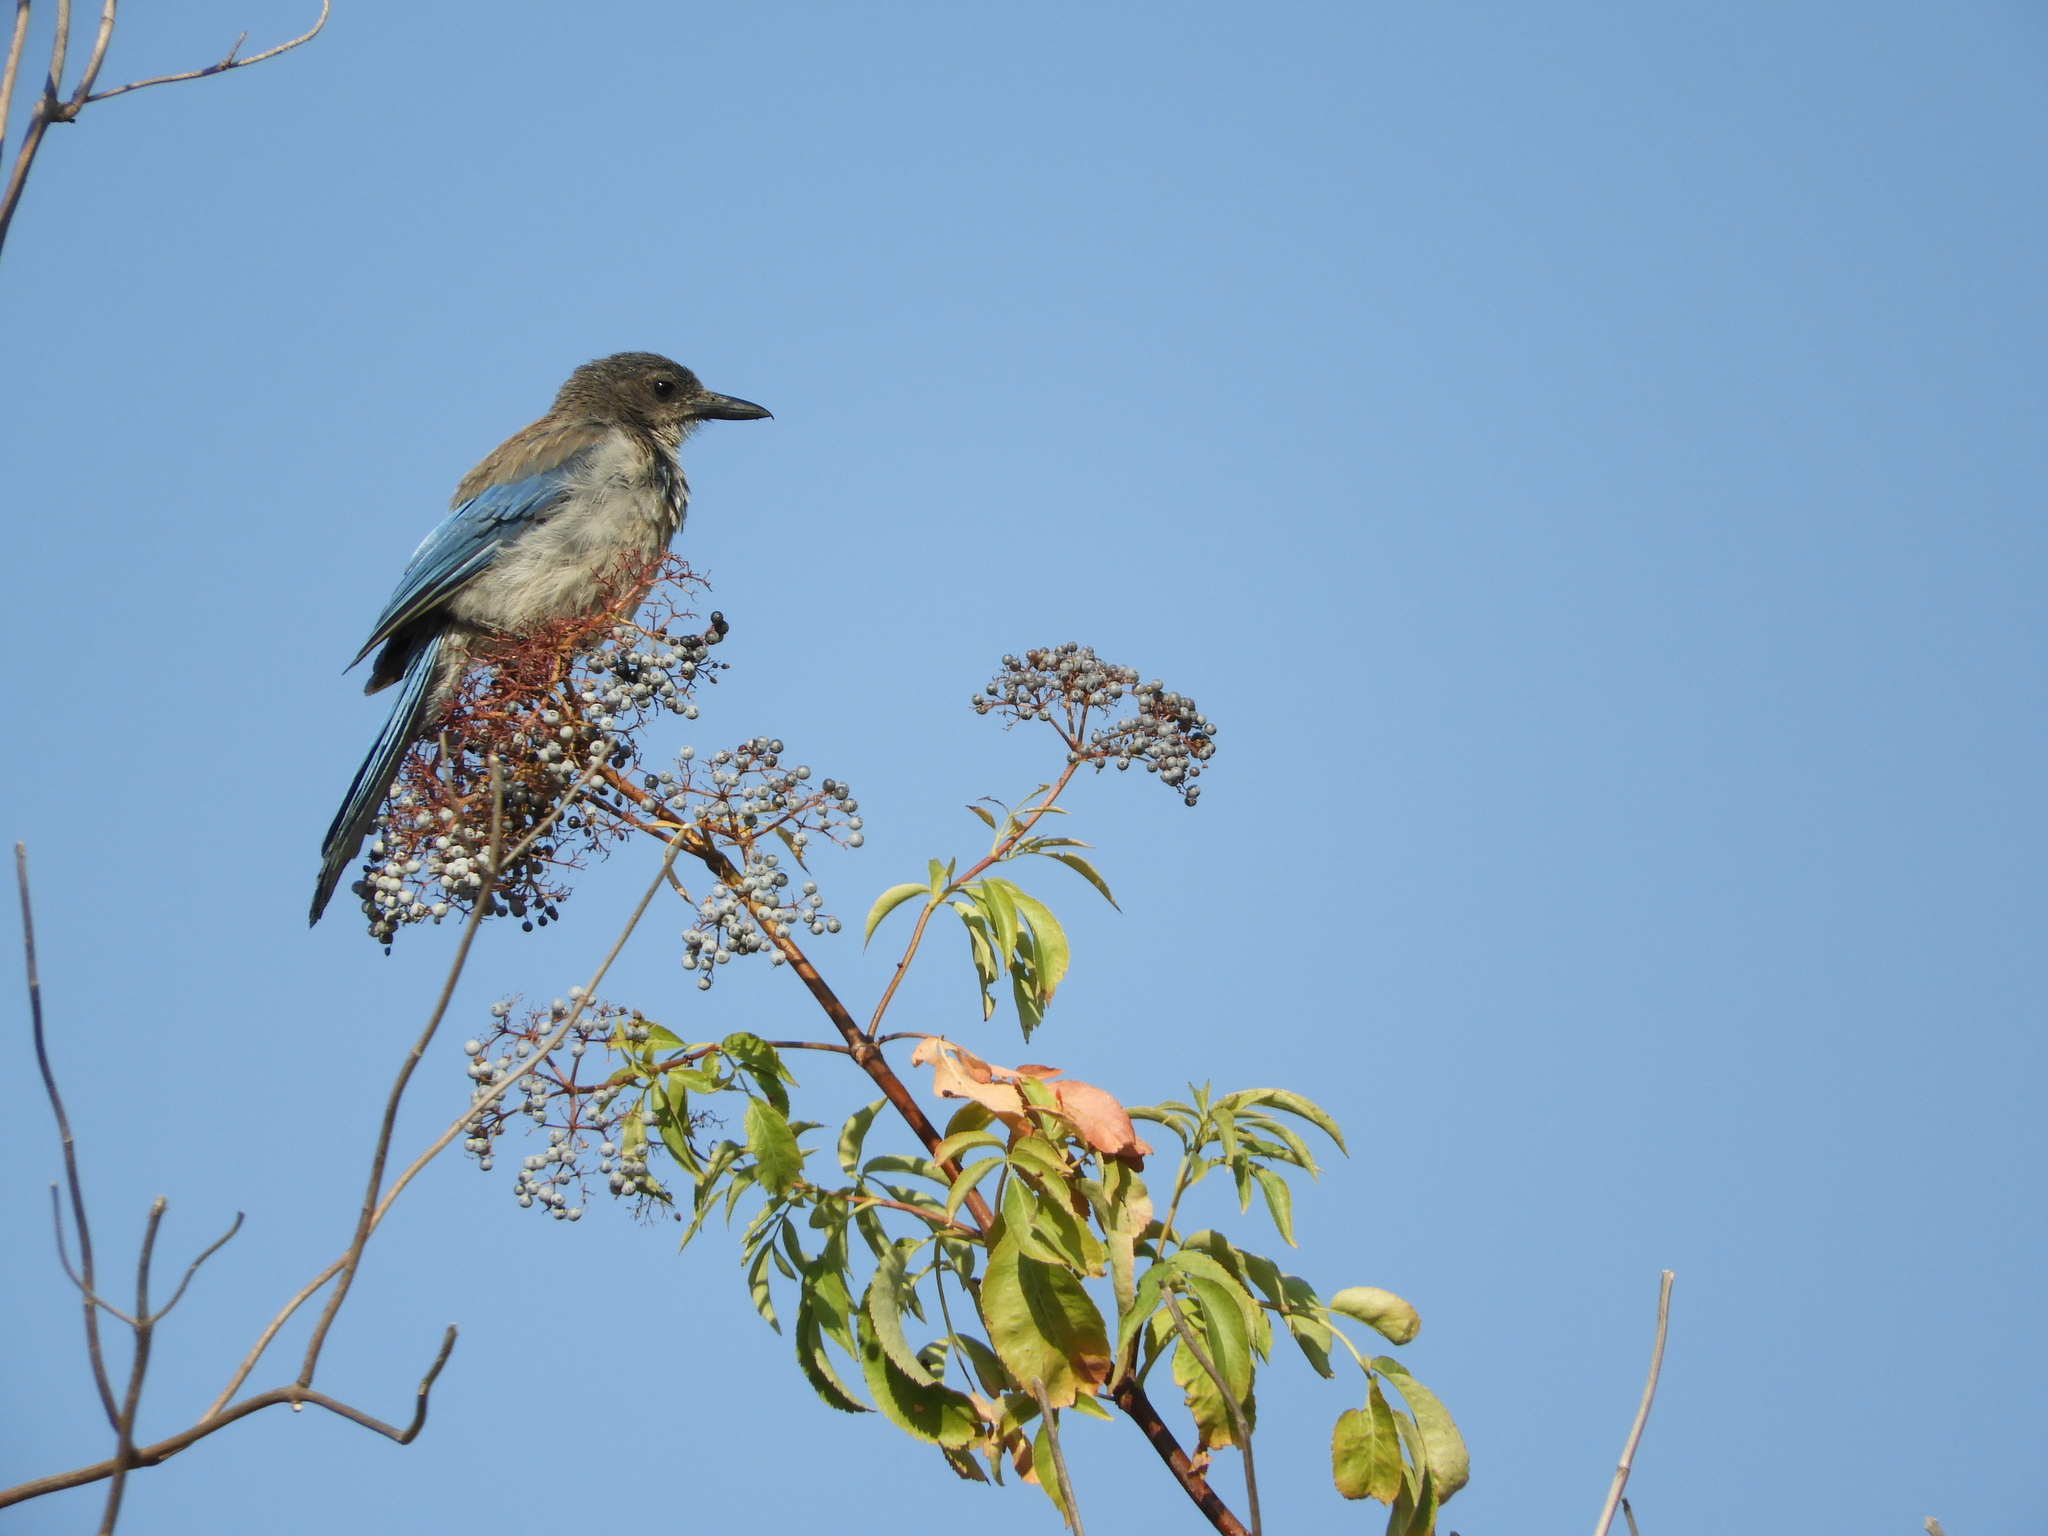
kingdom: Animalia
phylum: Chordata
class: Aves
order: Passeriformes
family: Corvidae
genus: Aphelocoma
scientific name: Aphelocoma californica
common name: California scrub-jay
